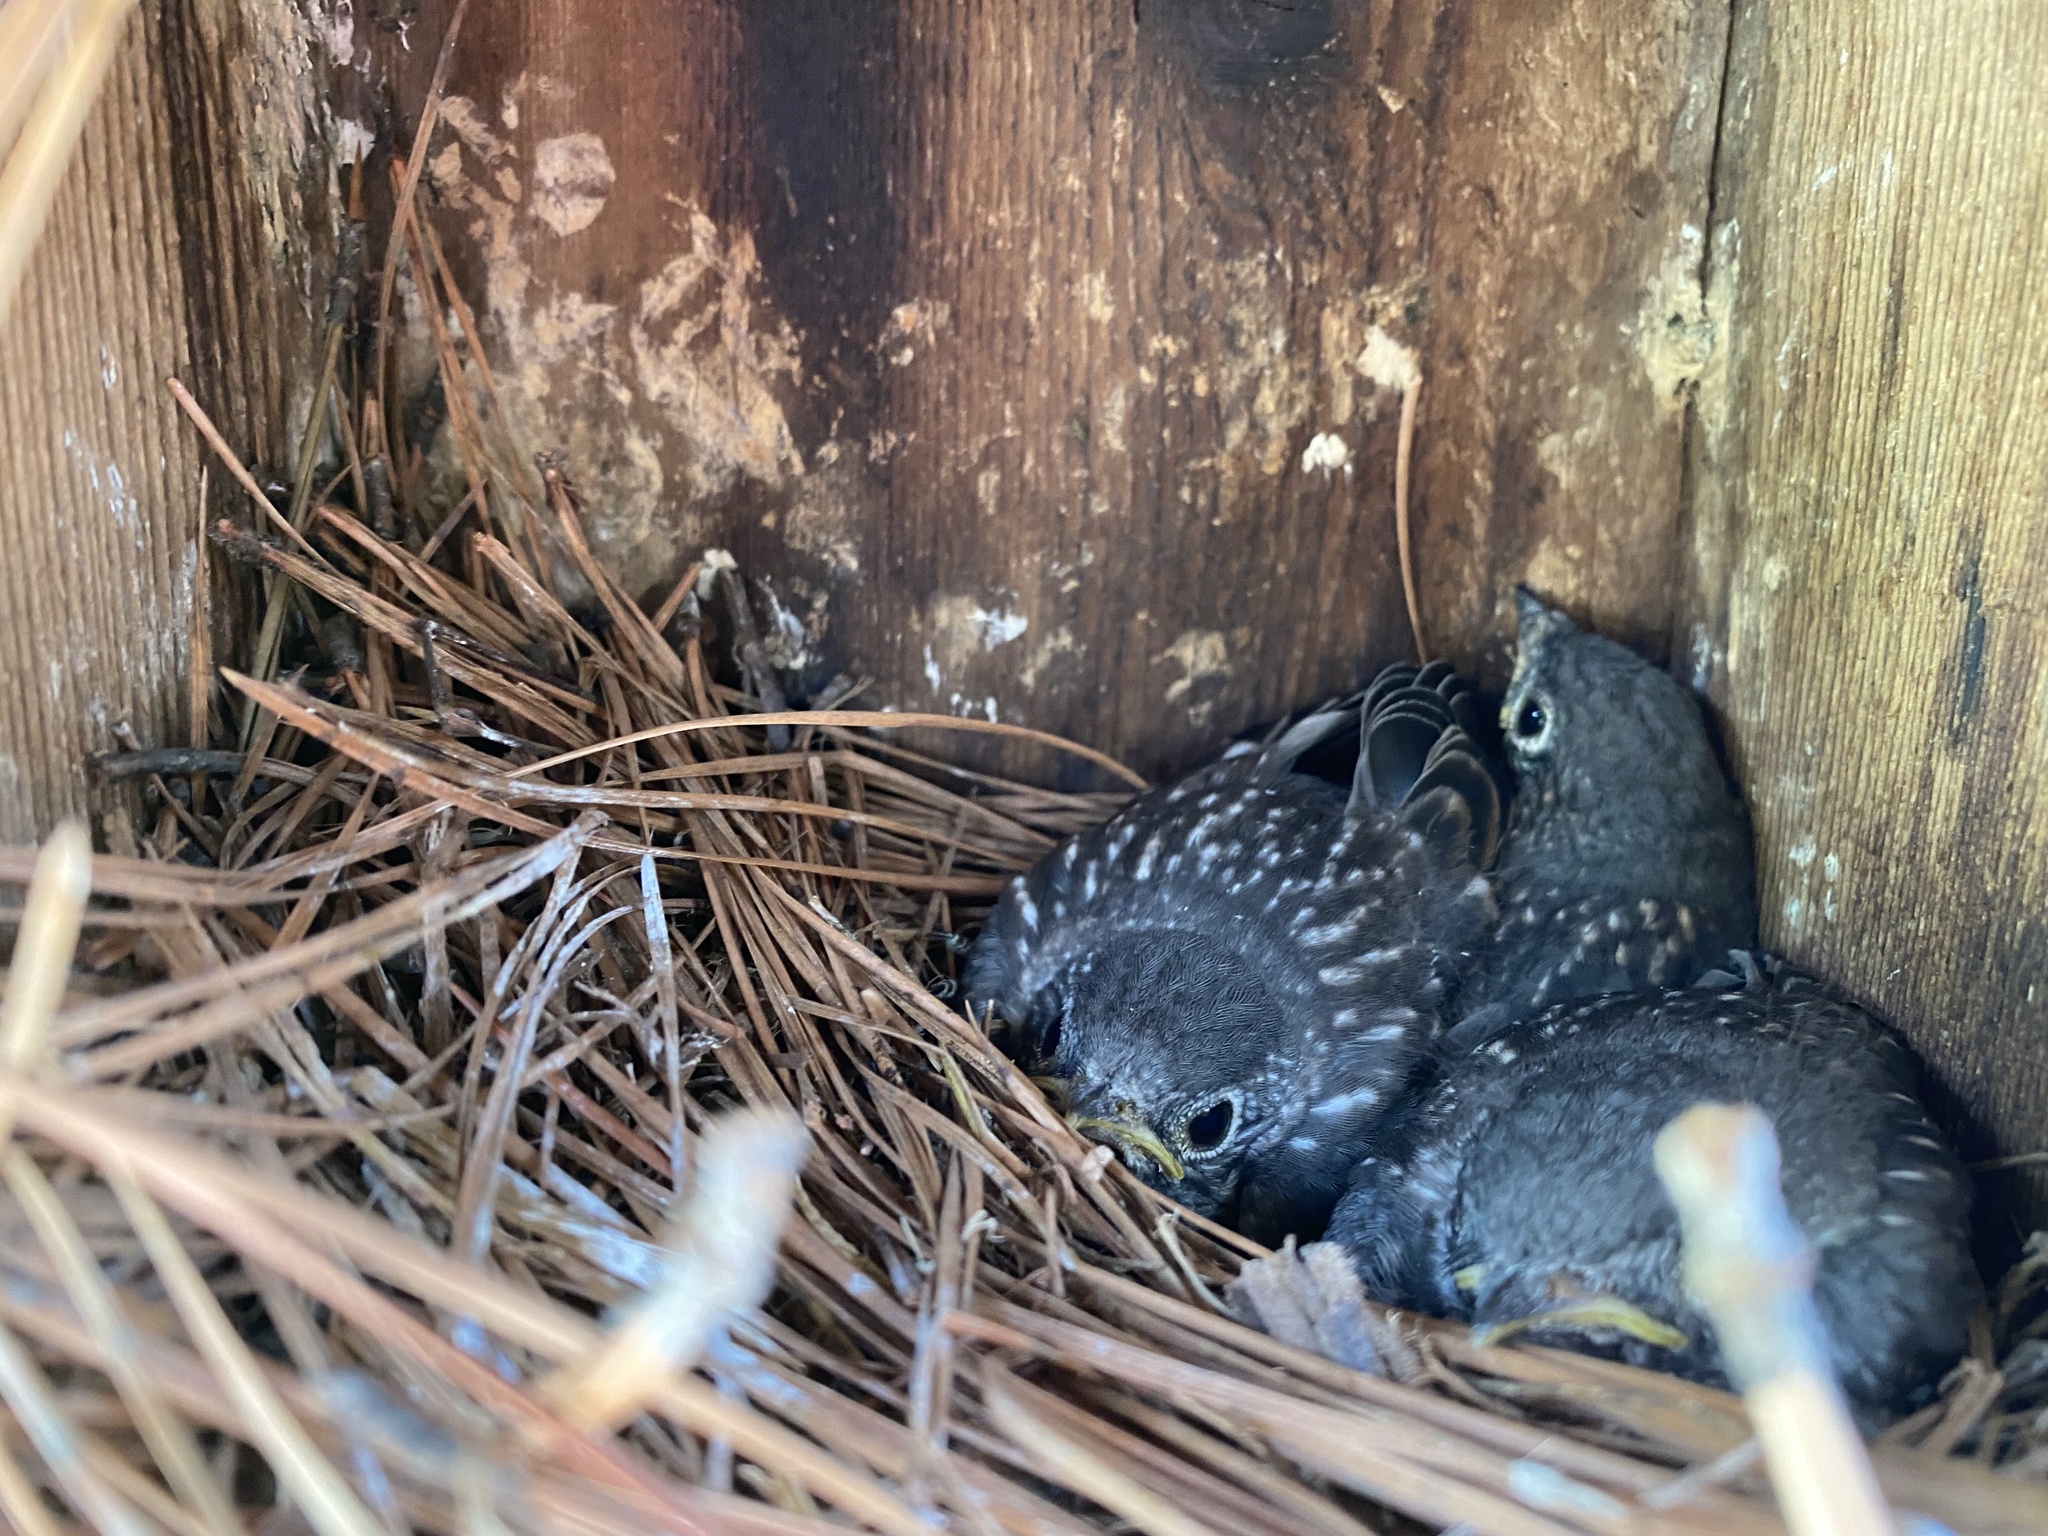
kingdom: Animalia
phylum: Chordata
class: Aves
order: Passeriformes
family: Turdidae
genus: Sialia
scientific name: Sialia sialis
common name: Eastern bluebird
